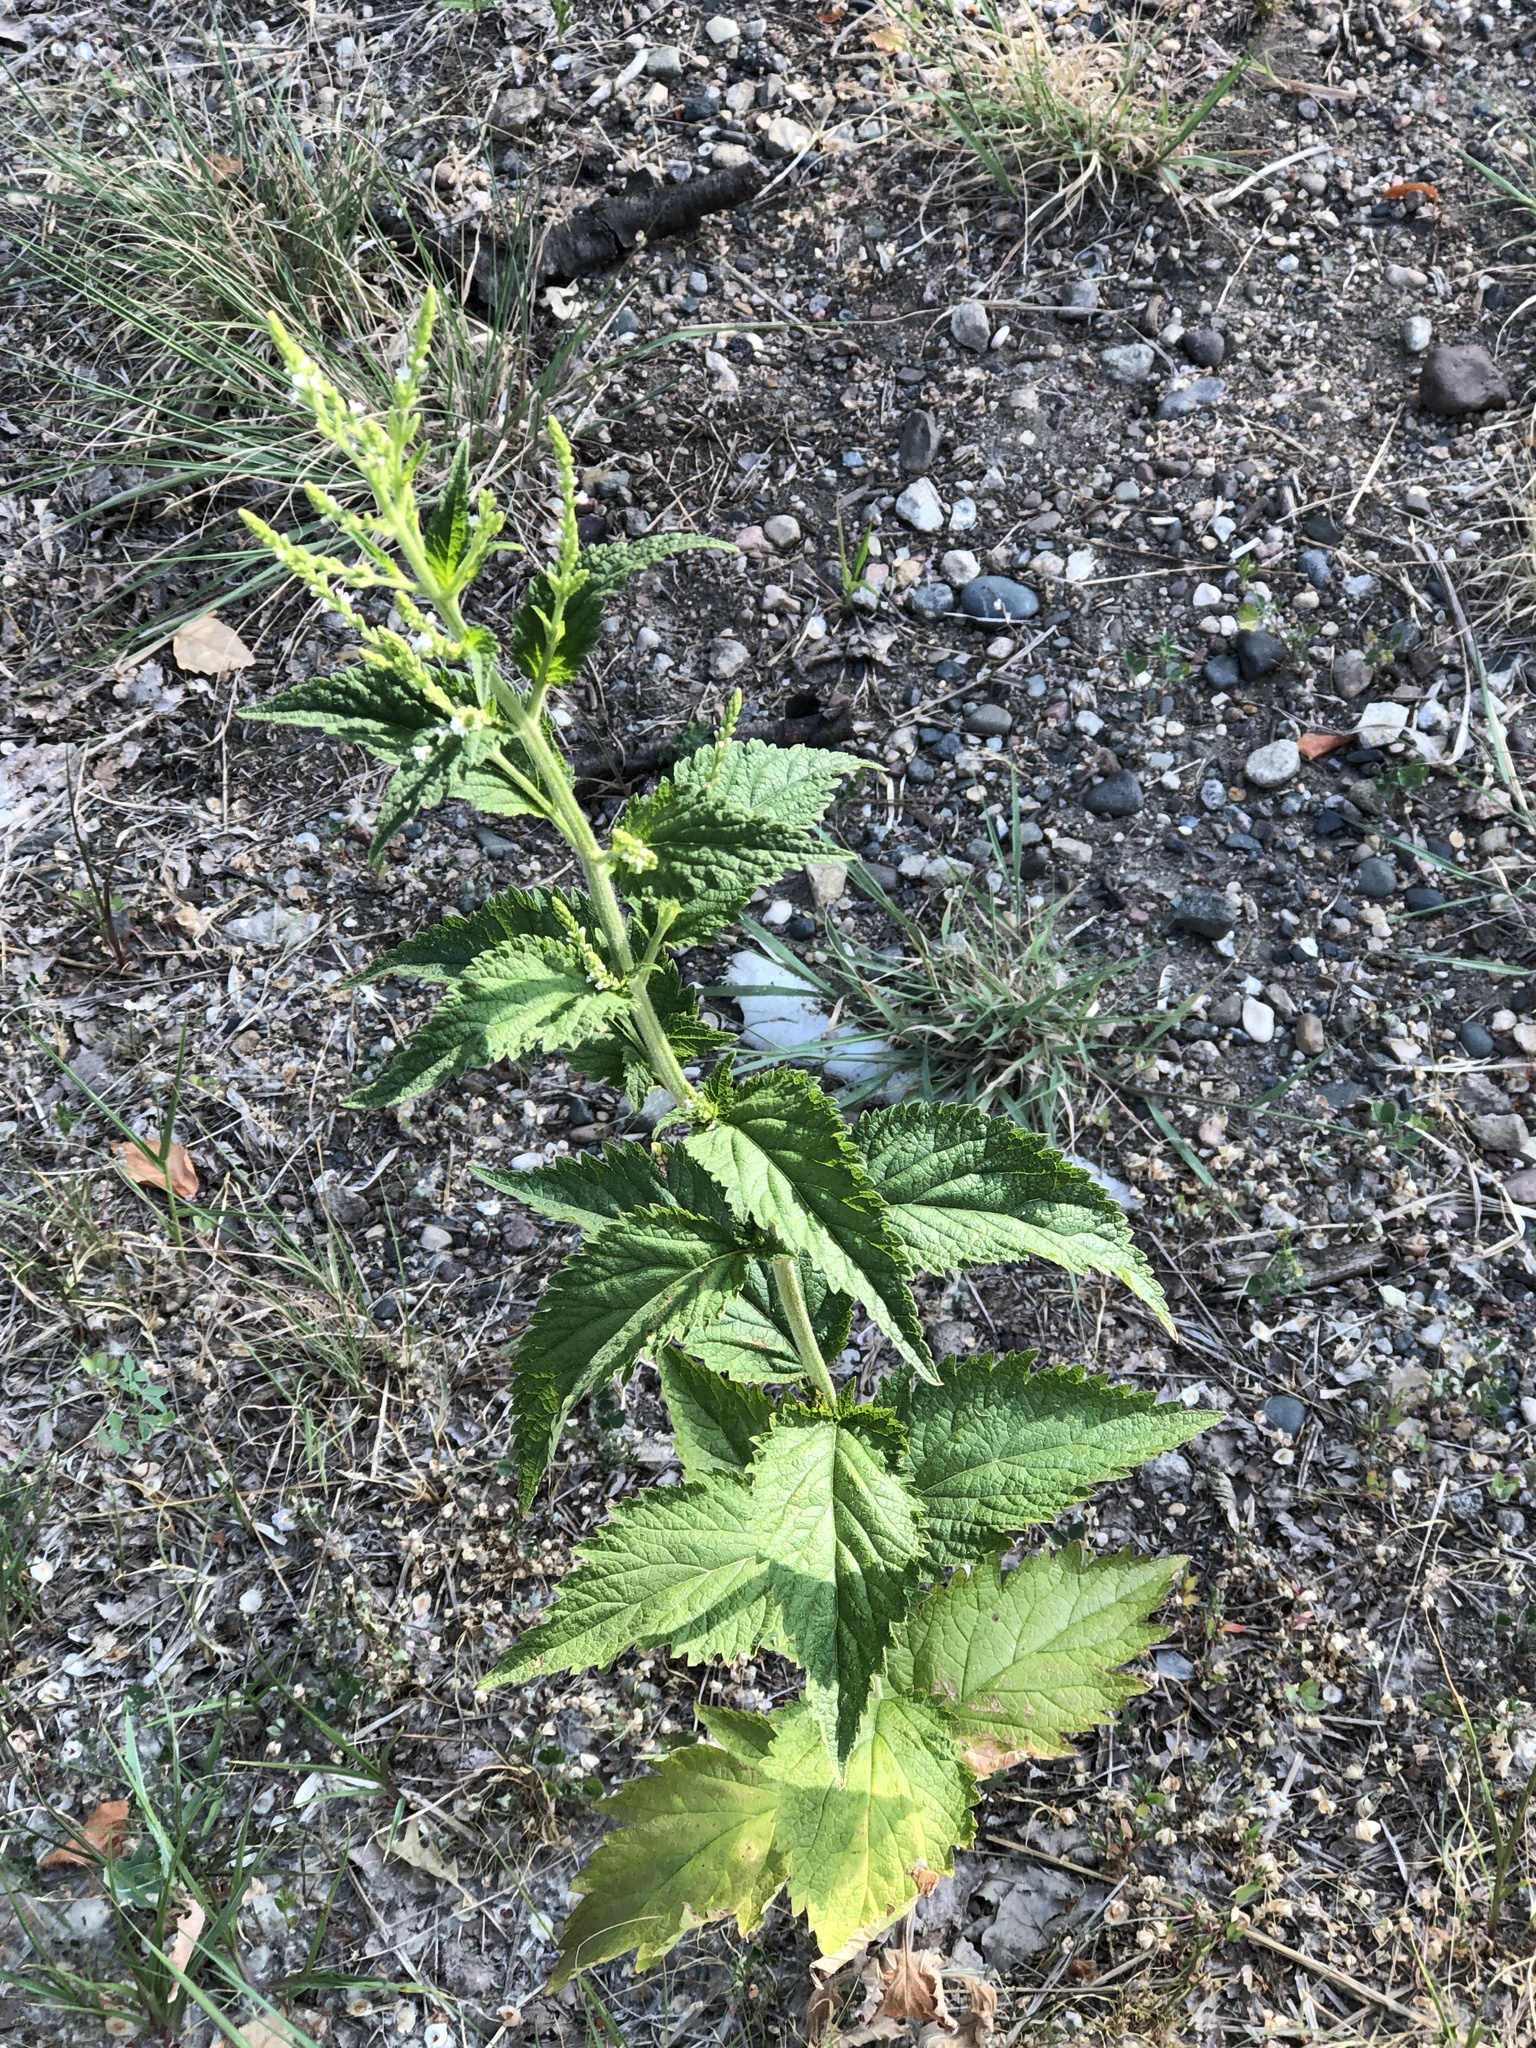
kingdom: Plantae
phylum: Tracheophyta
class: Magnoliopsida
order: Lamiales
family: Verbenaceae
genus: Verbena
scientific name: Verbena urticifolia
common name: Nettle-leaved vervain
